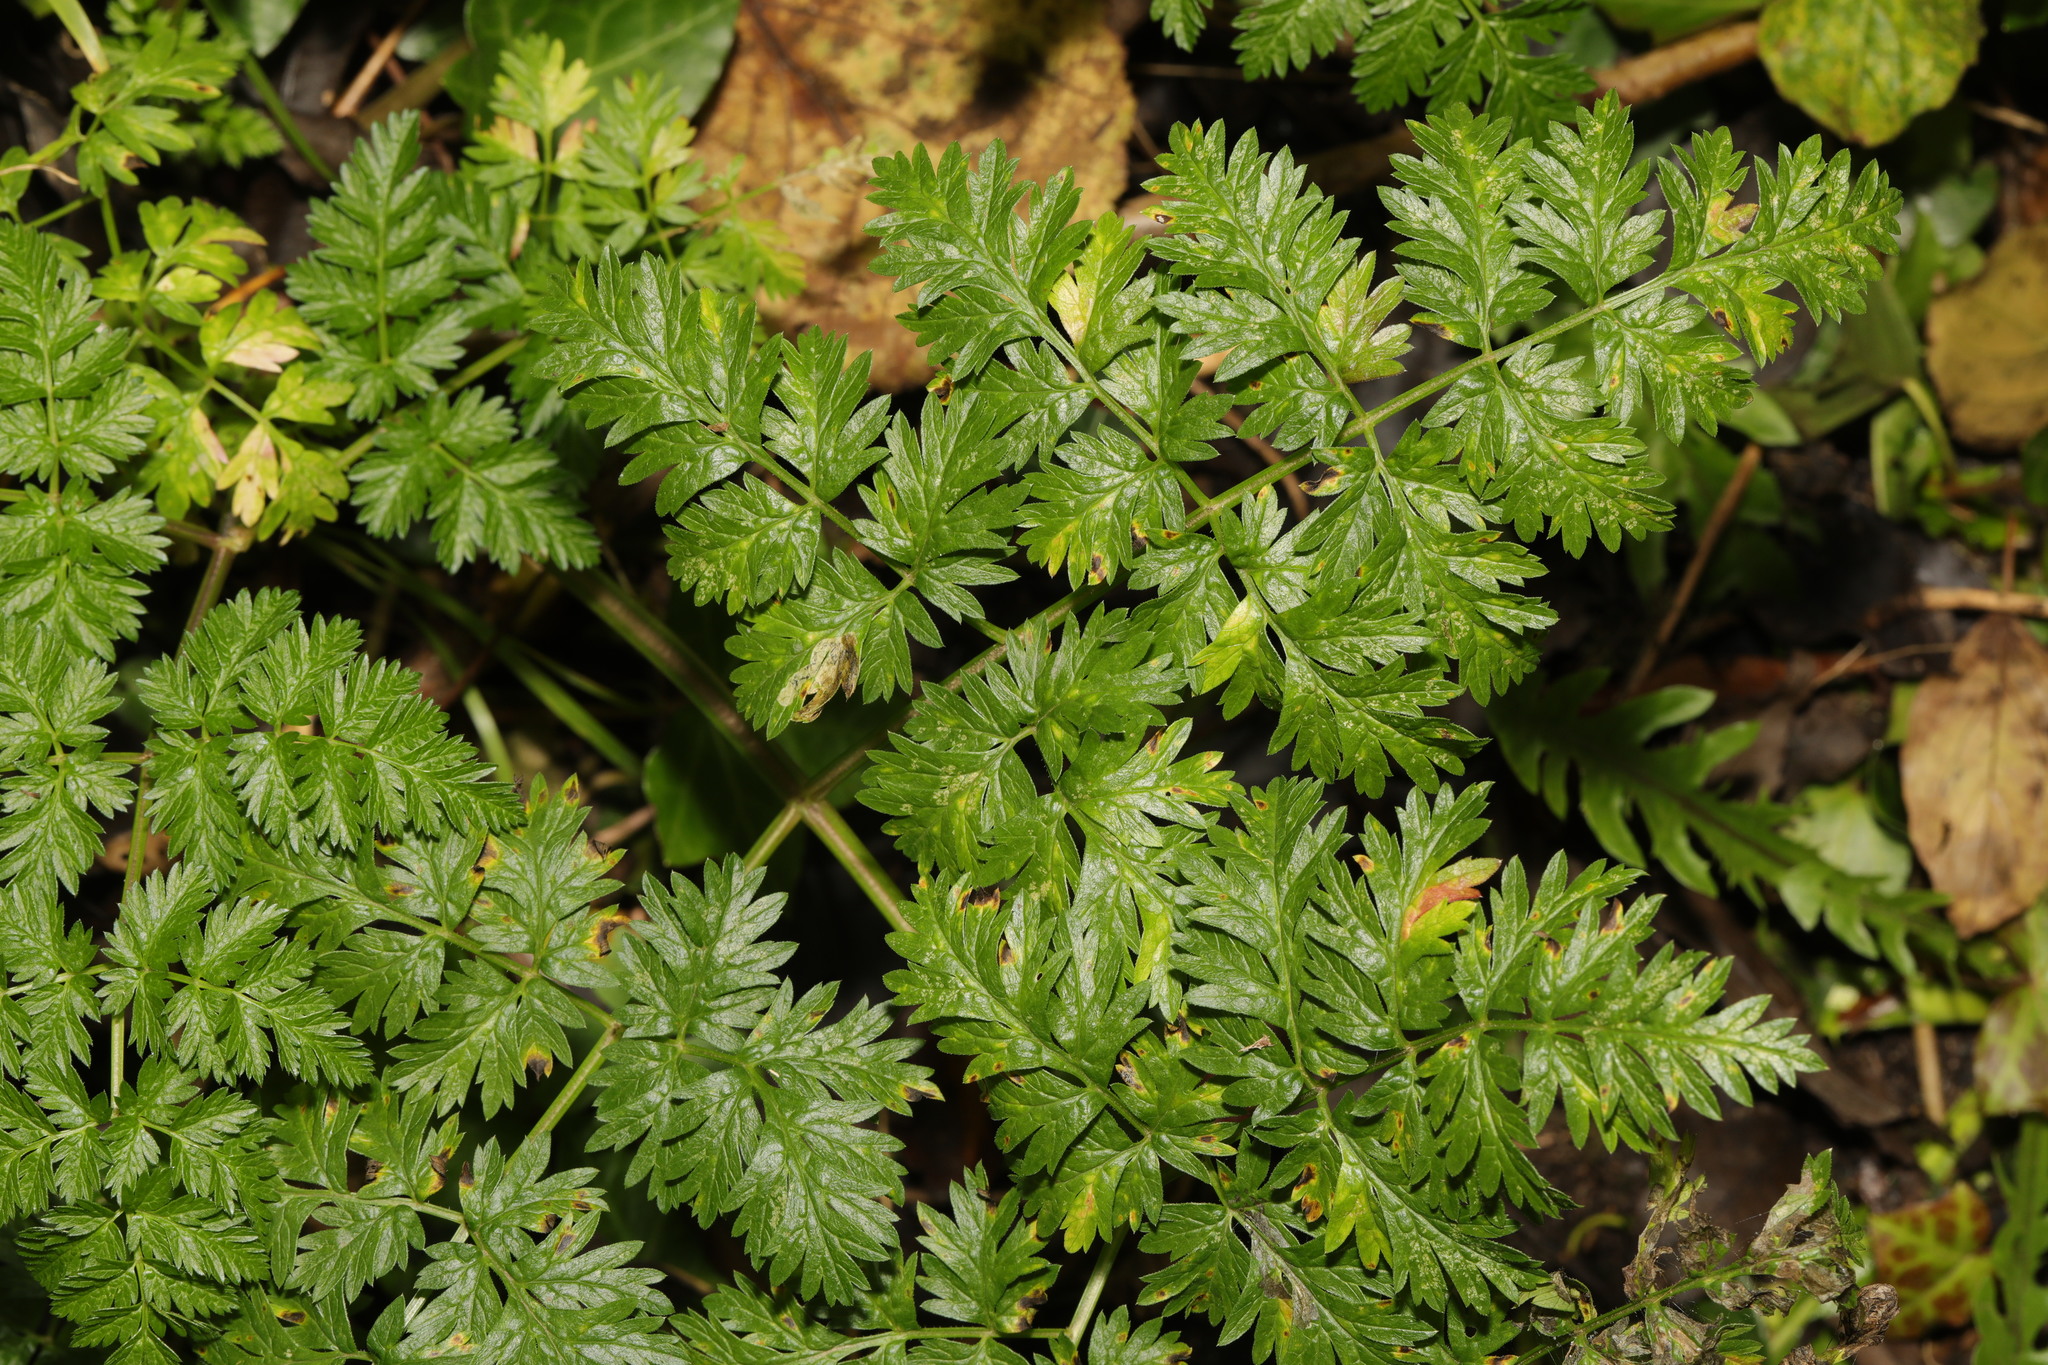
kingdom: Plantae
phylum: Tracheophyta
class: Magnoliopsida
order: Apiales
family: Apiaceae
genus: Anthriscus
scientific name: Anthriscus sylvestris
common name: Cow parsley
